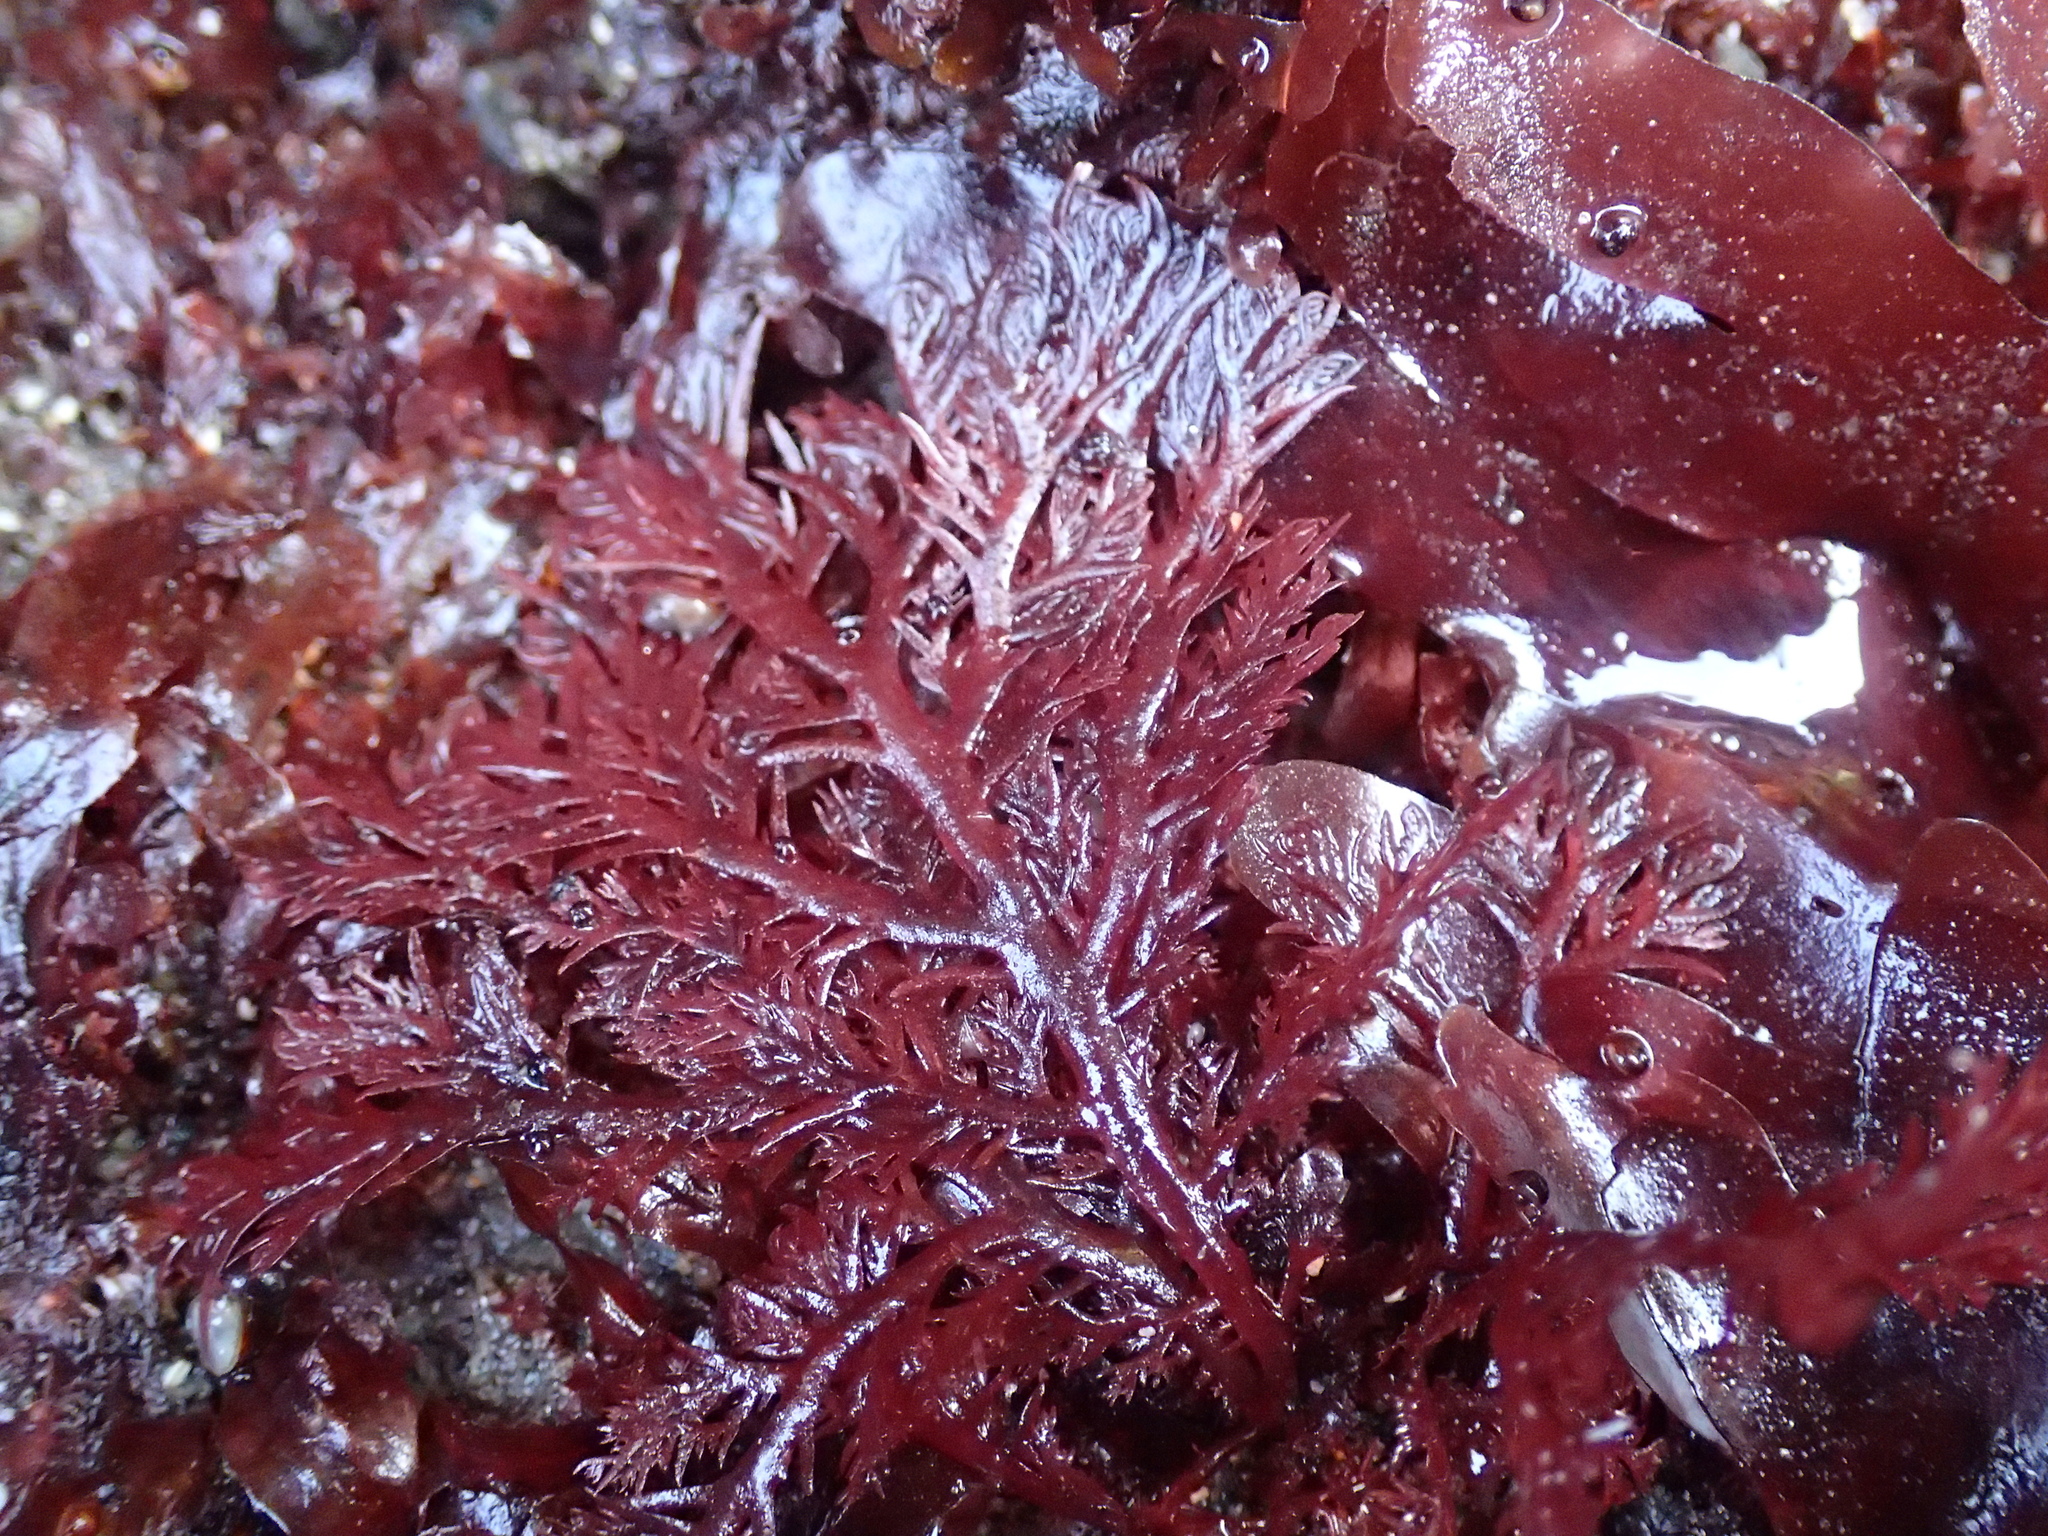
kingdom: Plantae
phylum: Rhodophyta
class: Florideophyceae
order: Plocamiales
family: Plocamiaceae
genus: Plocamium
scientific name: Plocamium cartilagineum
